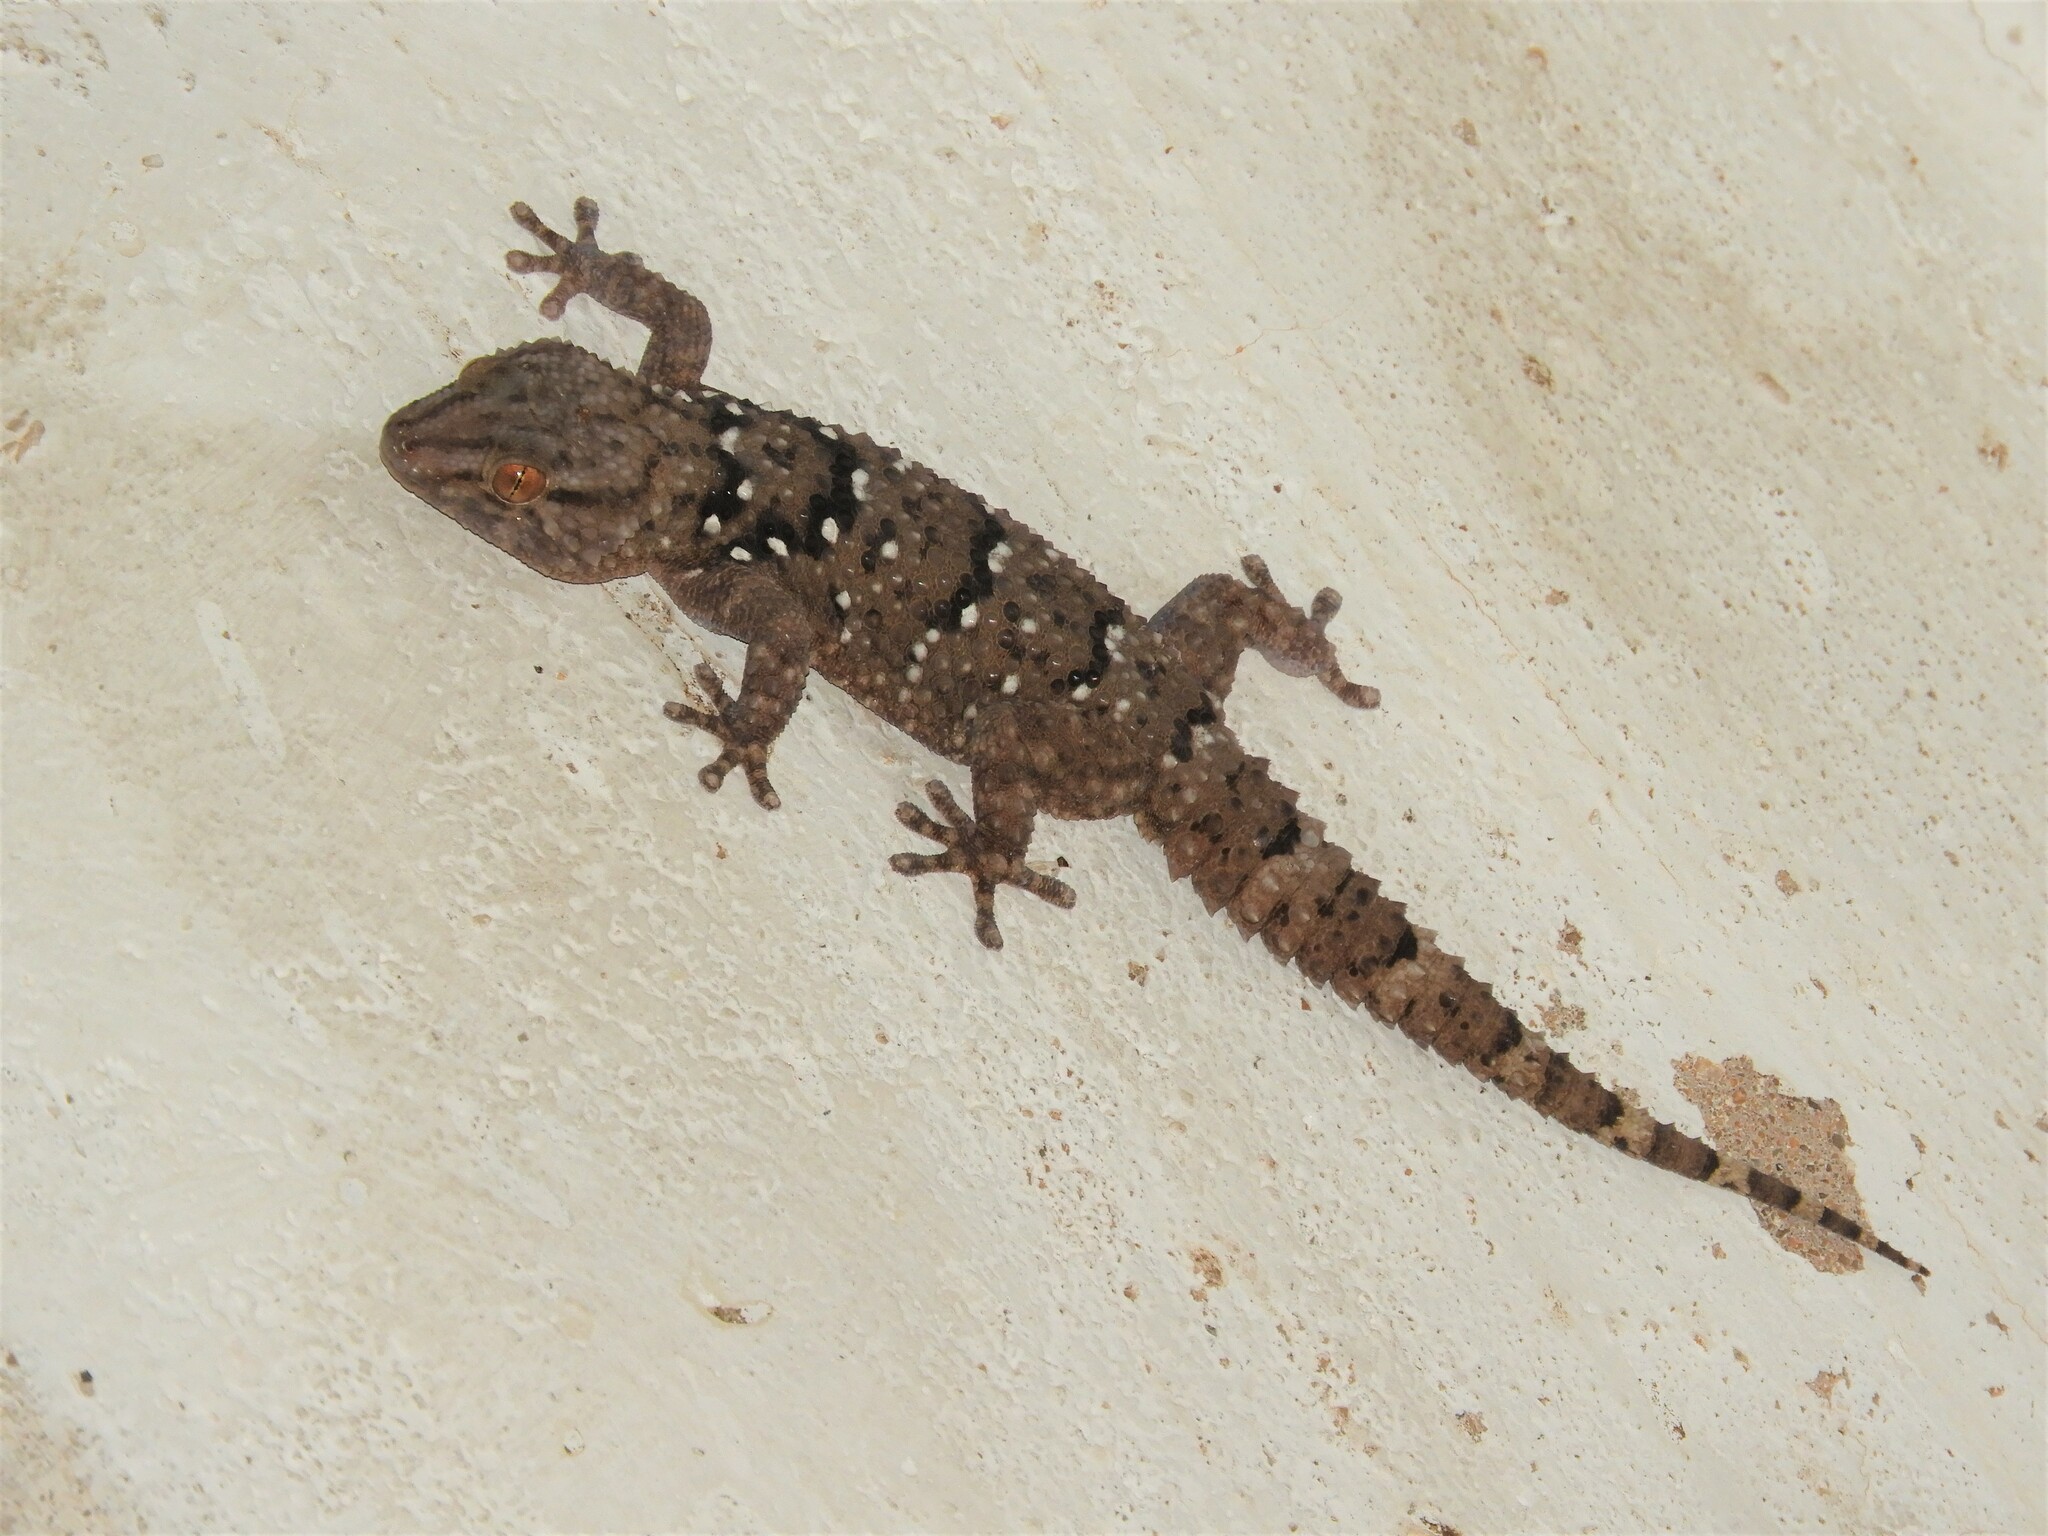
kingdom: Animalia
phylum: Chordata
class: Squamata
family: Gekkonidae
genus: Chondrodactylus
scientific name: Chondrodactylus laevigatus
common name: Fischer's thick-toed gecko
